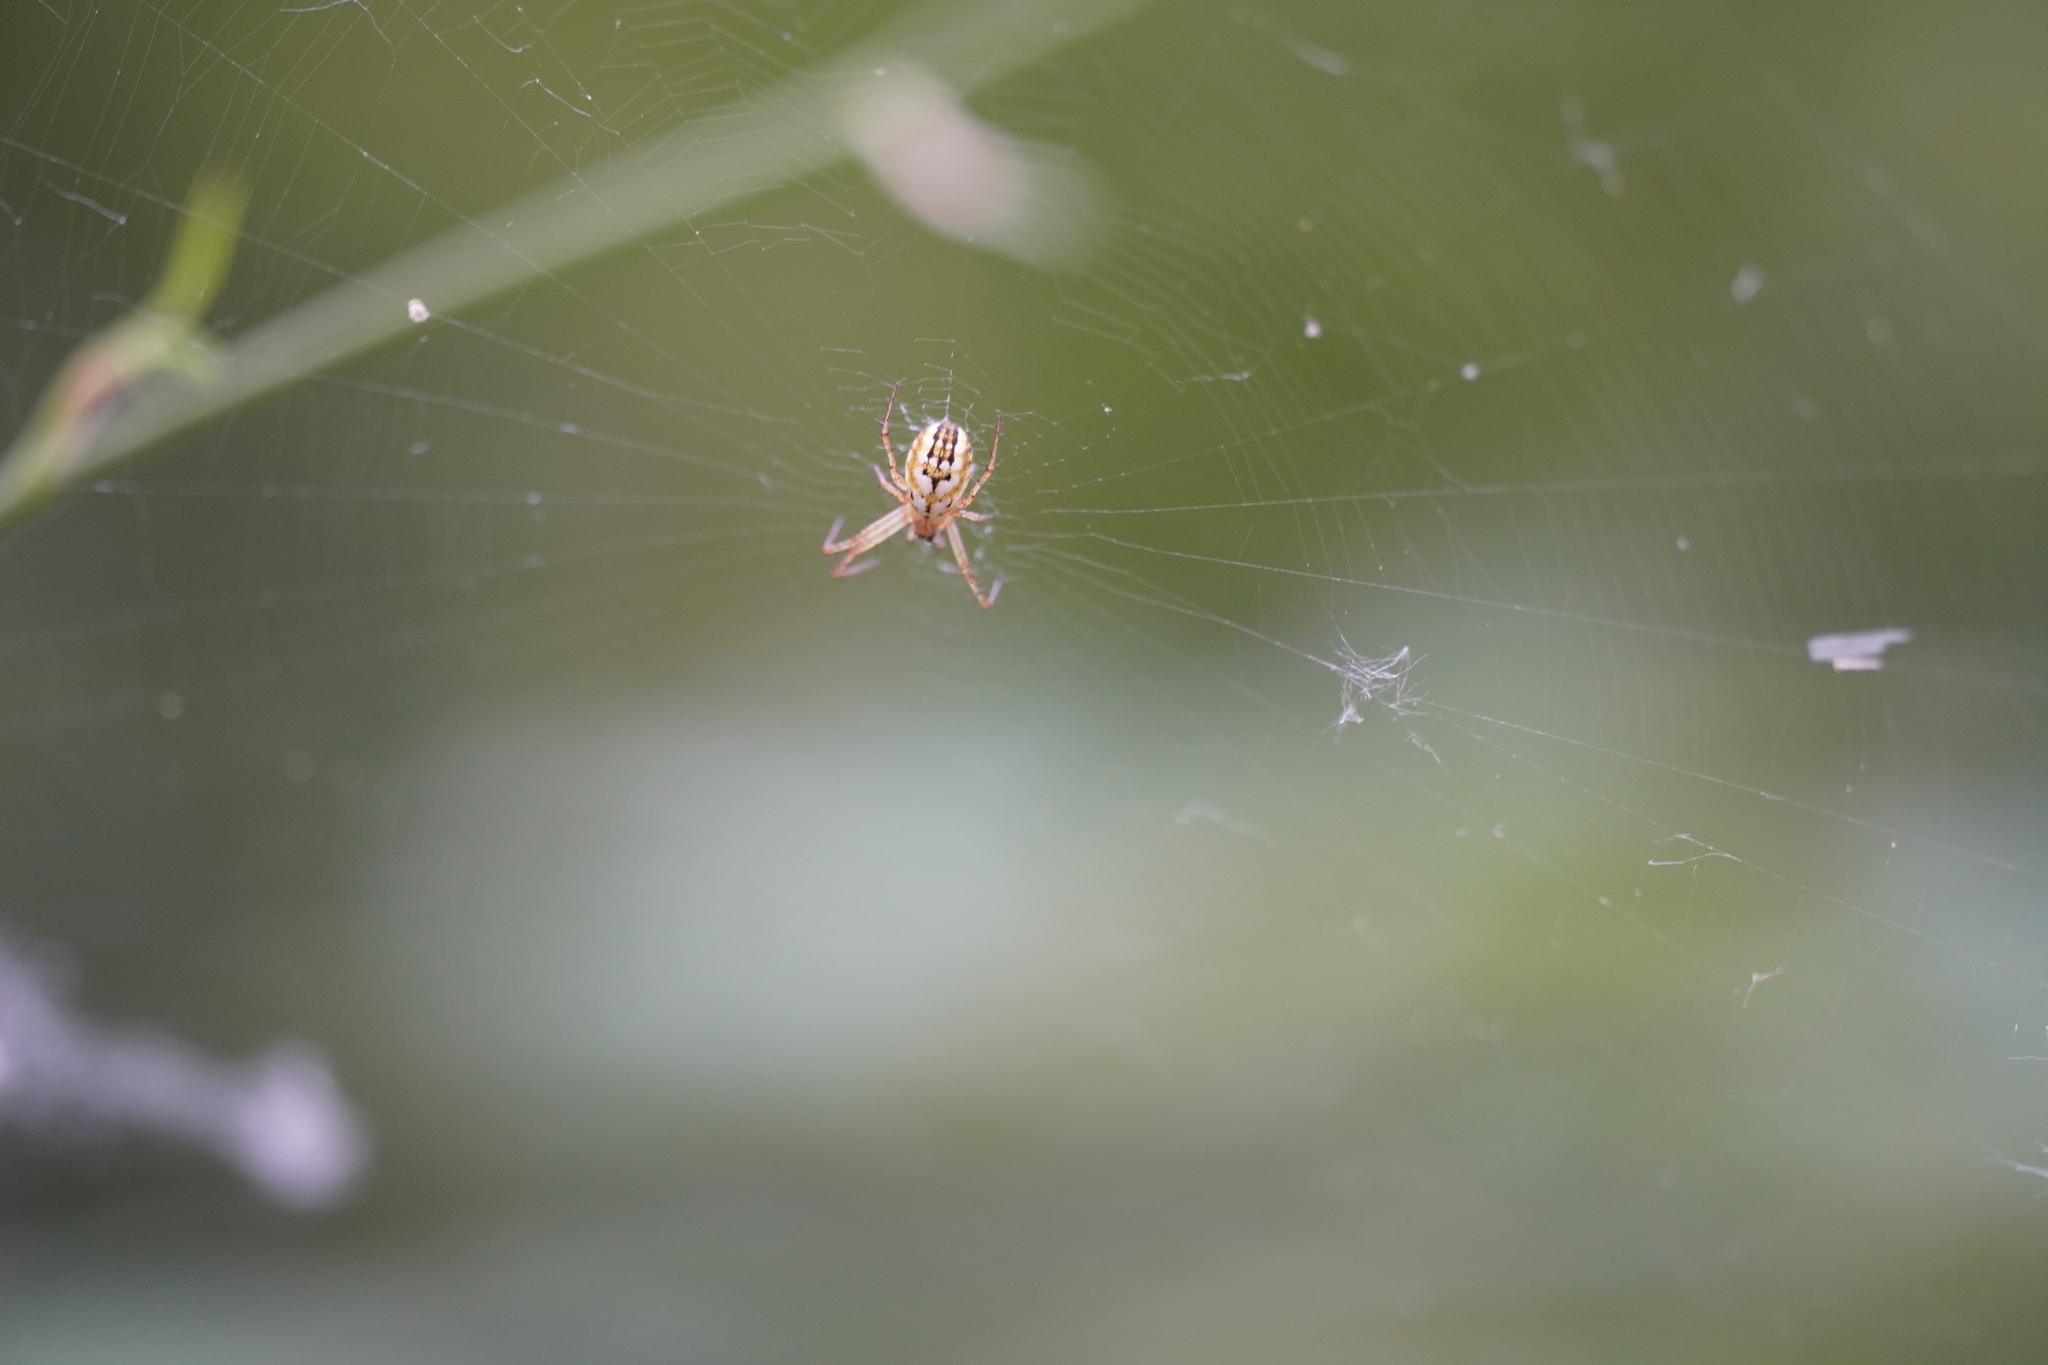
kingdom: Animalia
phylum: Arthropoda
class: Arachnida
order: Araneae
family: Araneidae
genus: Mangora
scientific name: Mangora acalypha
